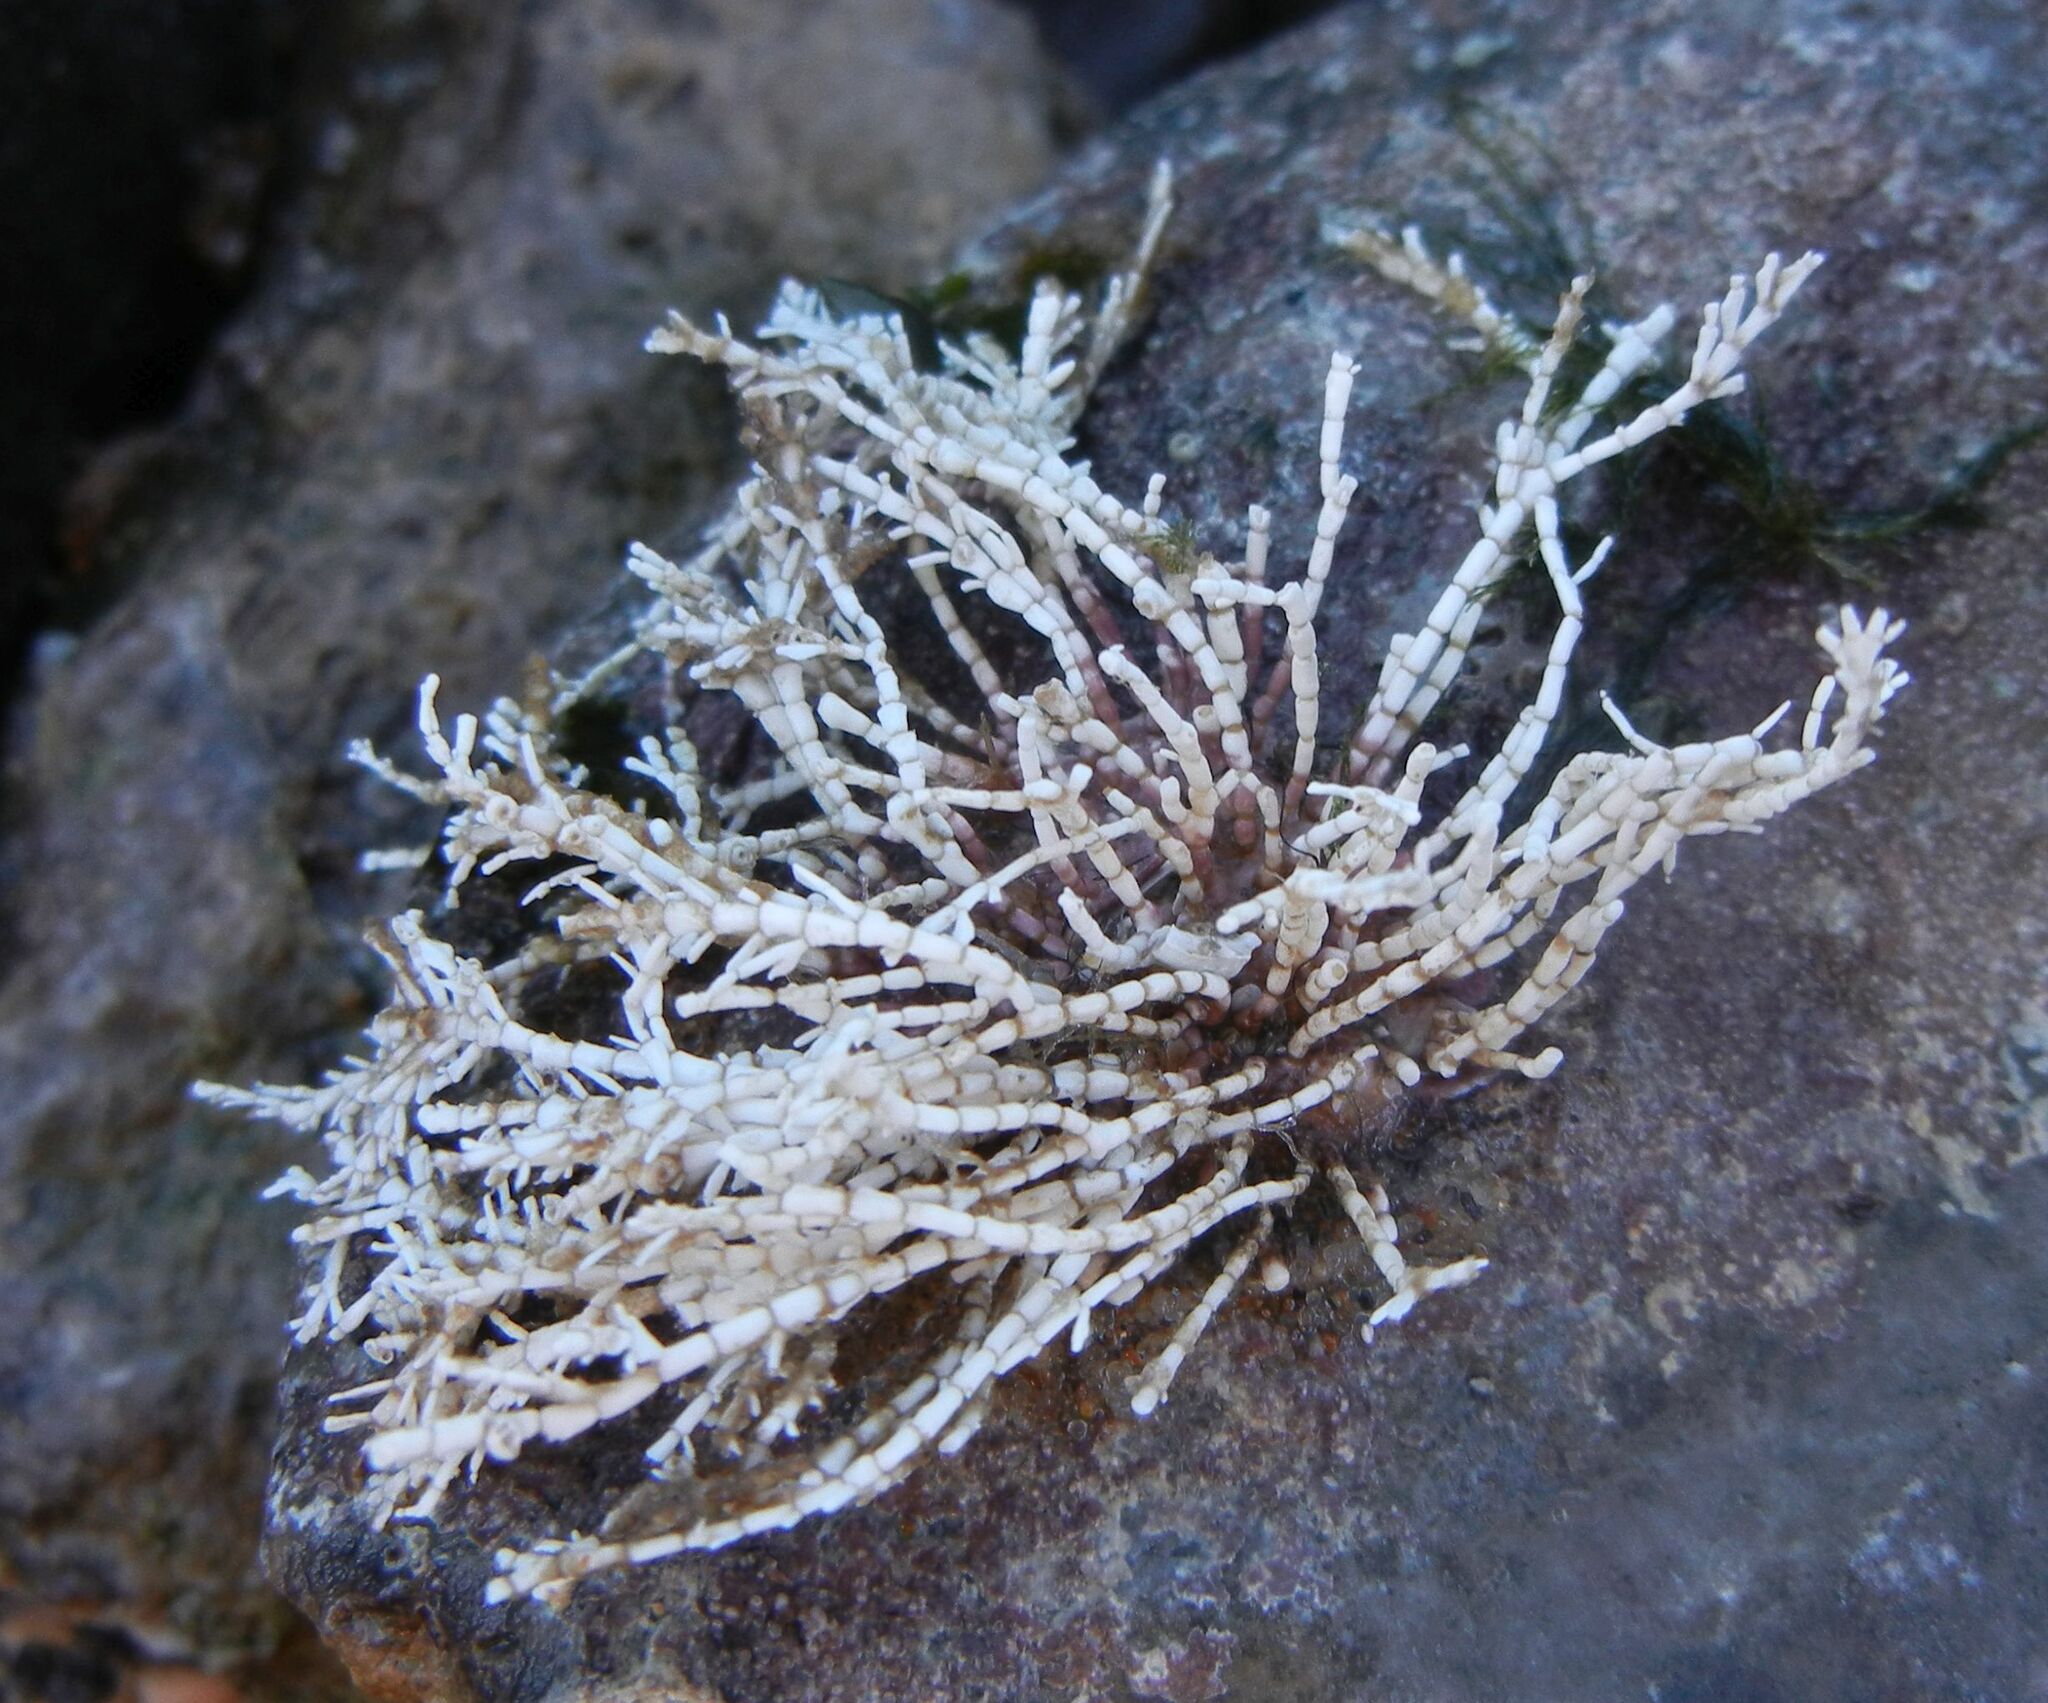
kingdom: Plantae
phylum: Rhodophyta
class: Florideophyceae
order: Corallinales
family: Corallinaceae
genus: Corallina
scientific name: Corallina officinalis
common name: Coral weed
